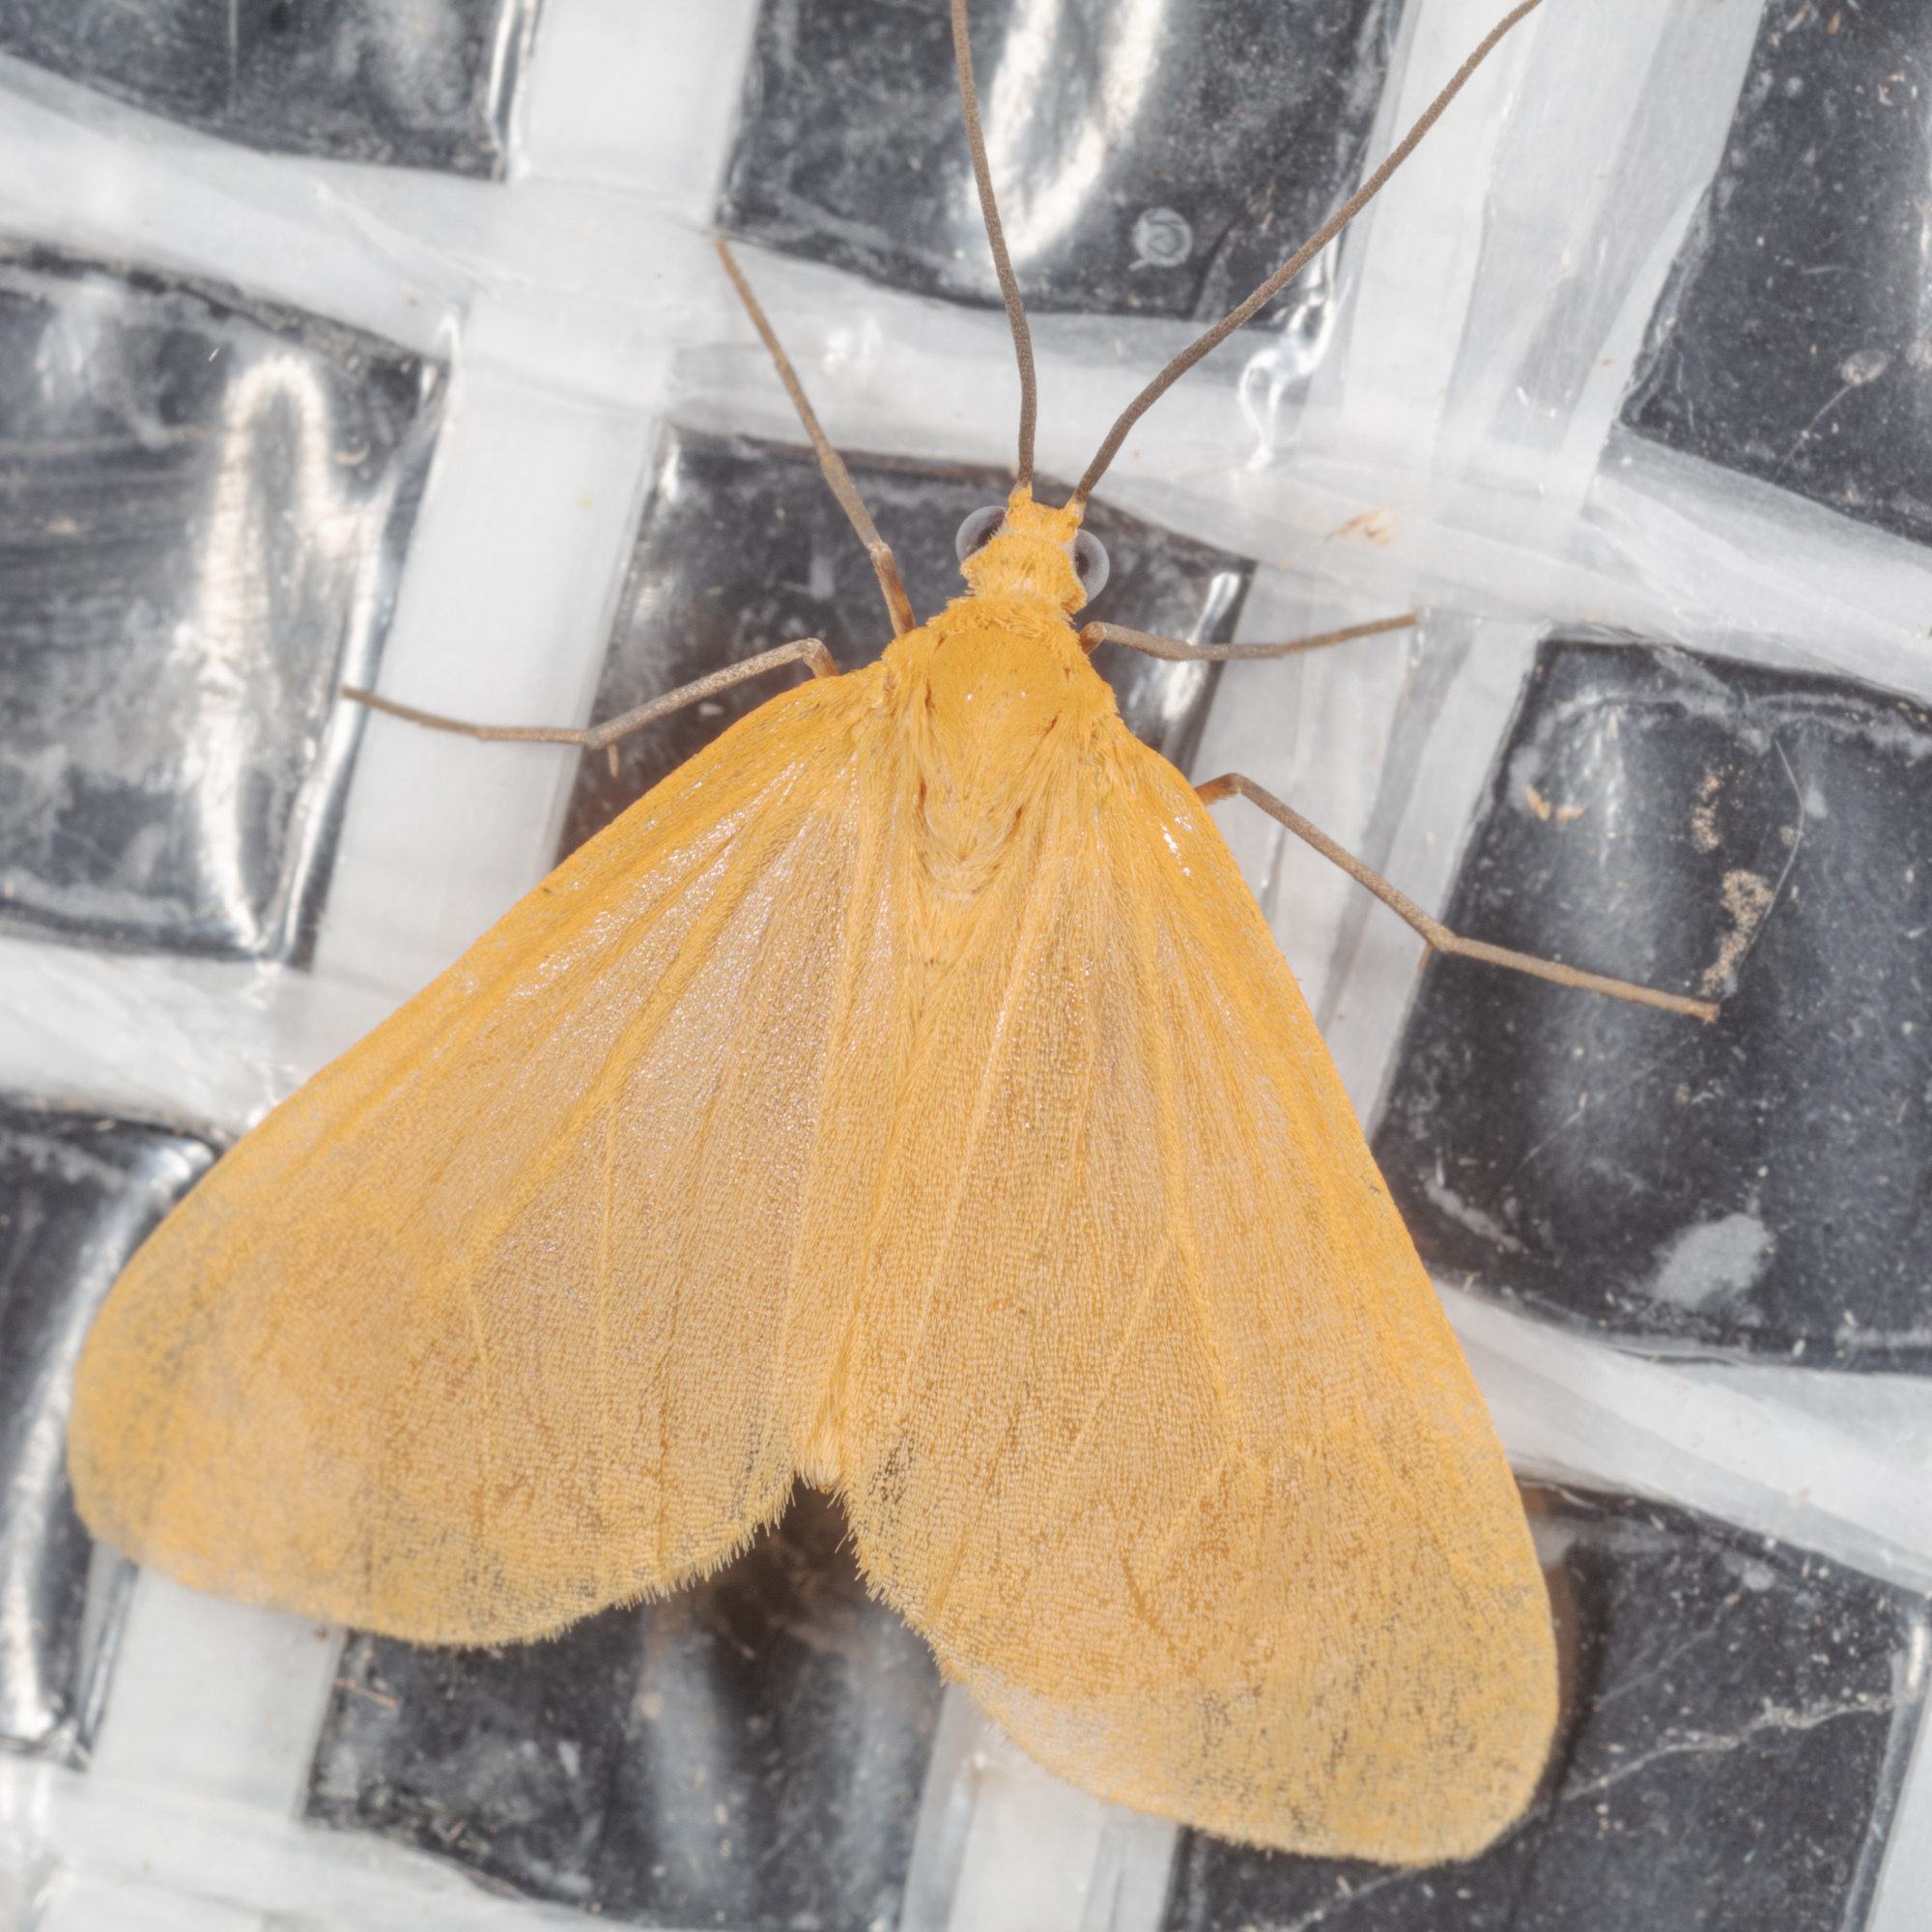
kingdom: Animalia
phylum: Arthropoda
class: Insecta
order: Lepidoptera
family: Geometridae
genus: Eubaphe
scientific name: Eubaphe unicolor
